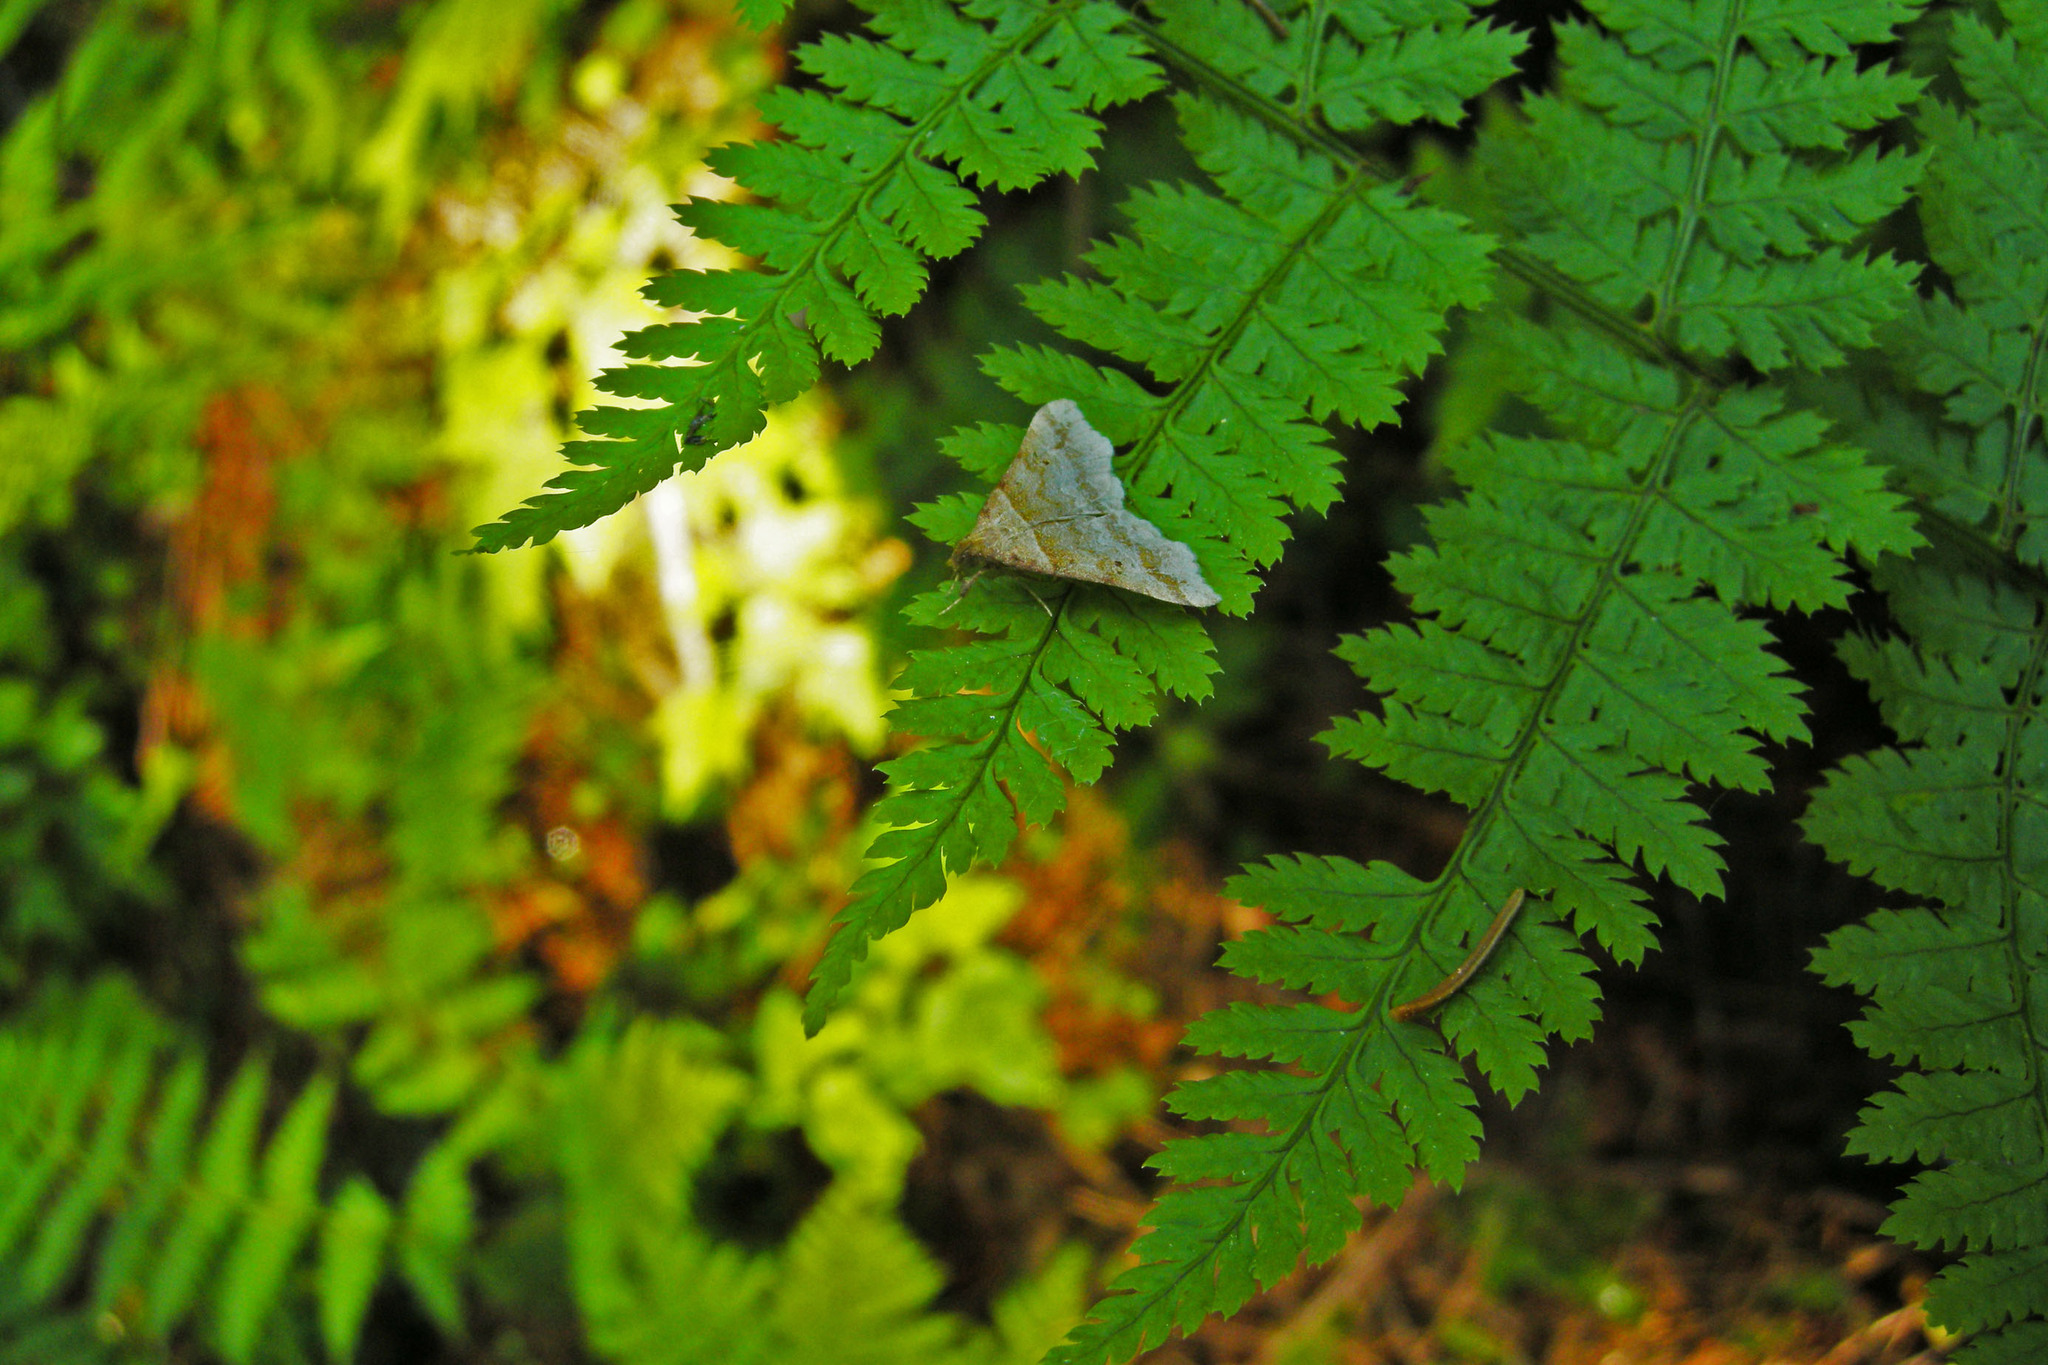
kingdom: Plantae
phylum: Tracheophyta
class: Polypodiopsida
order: Polypodiales
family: Dryopteridaceae
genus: Dryopteris
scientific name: Dryopteris intermedia
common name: Evergreen wood fern
